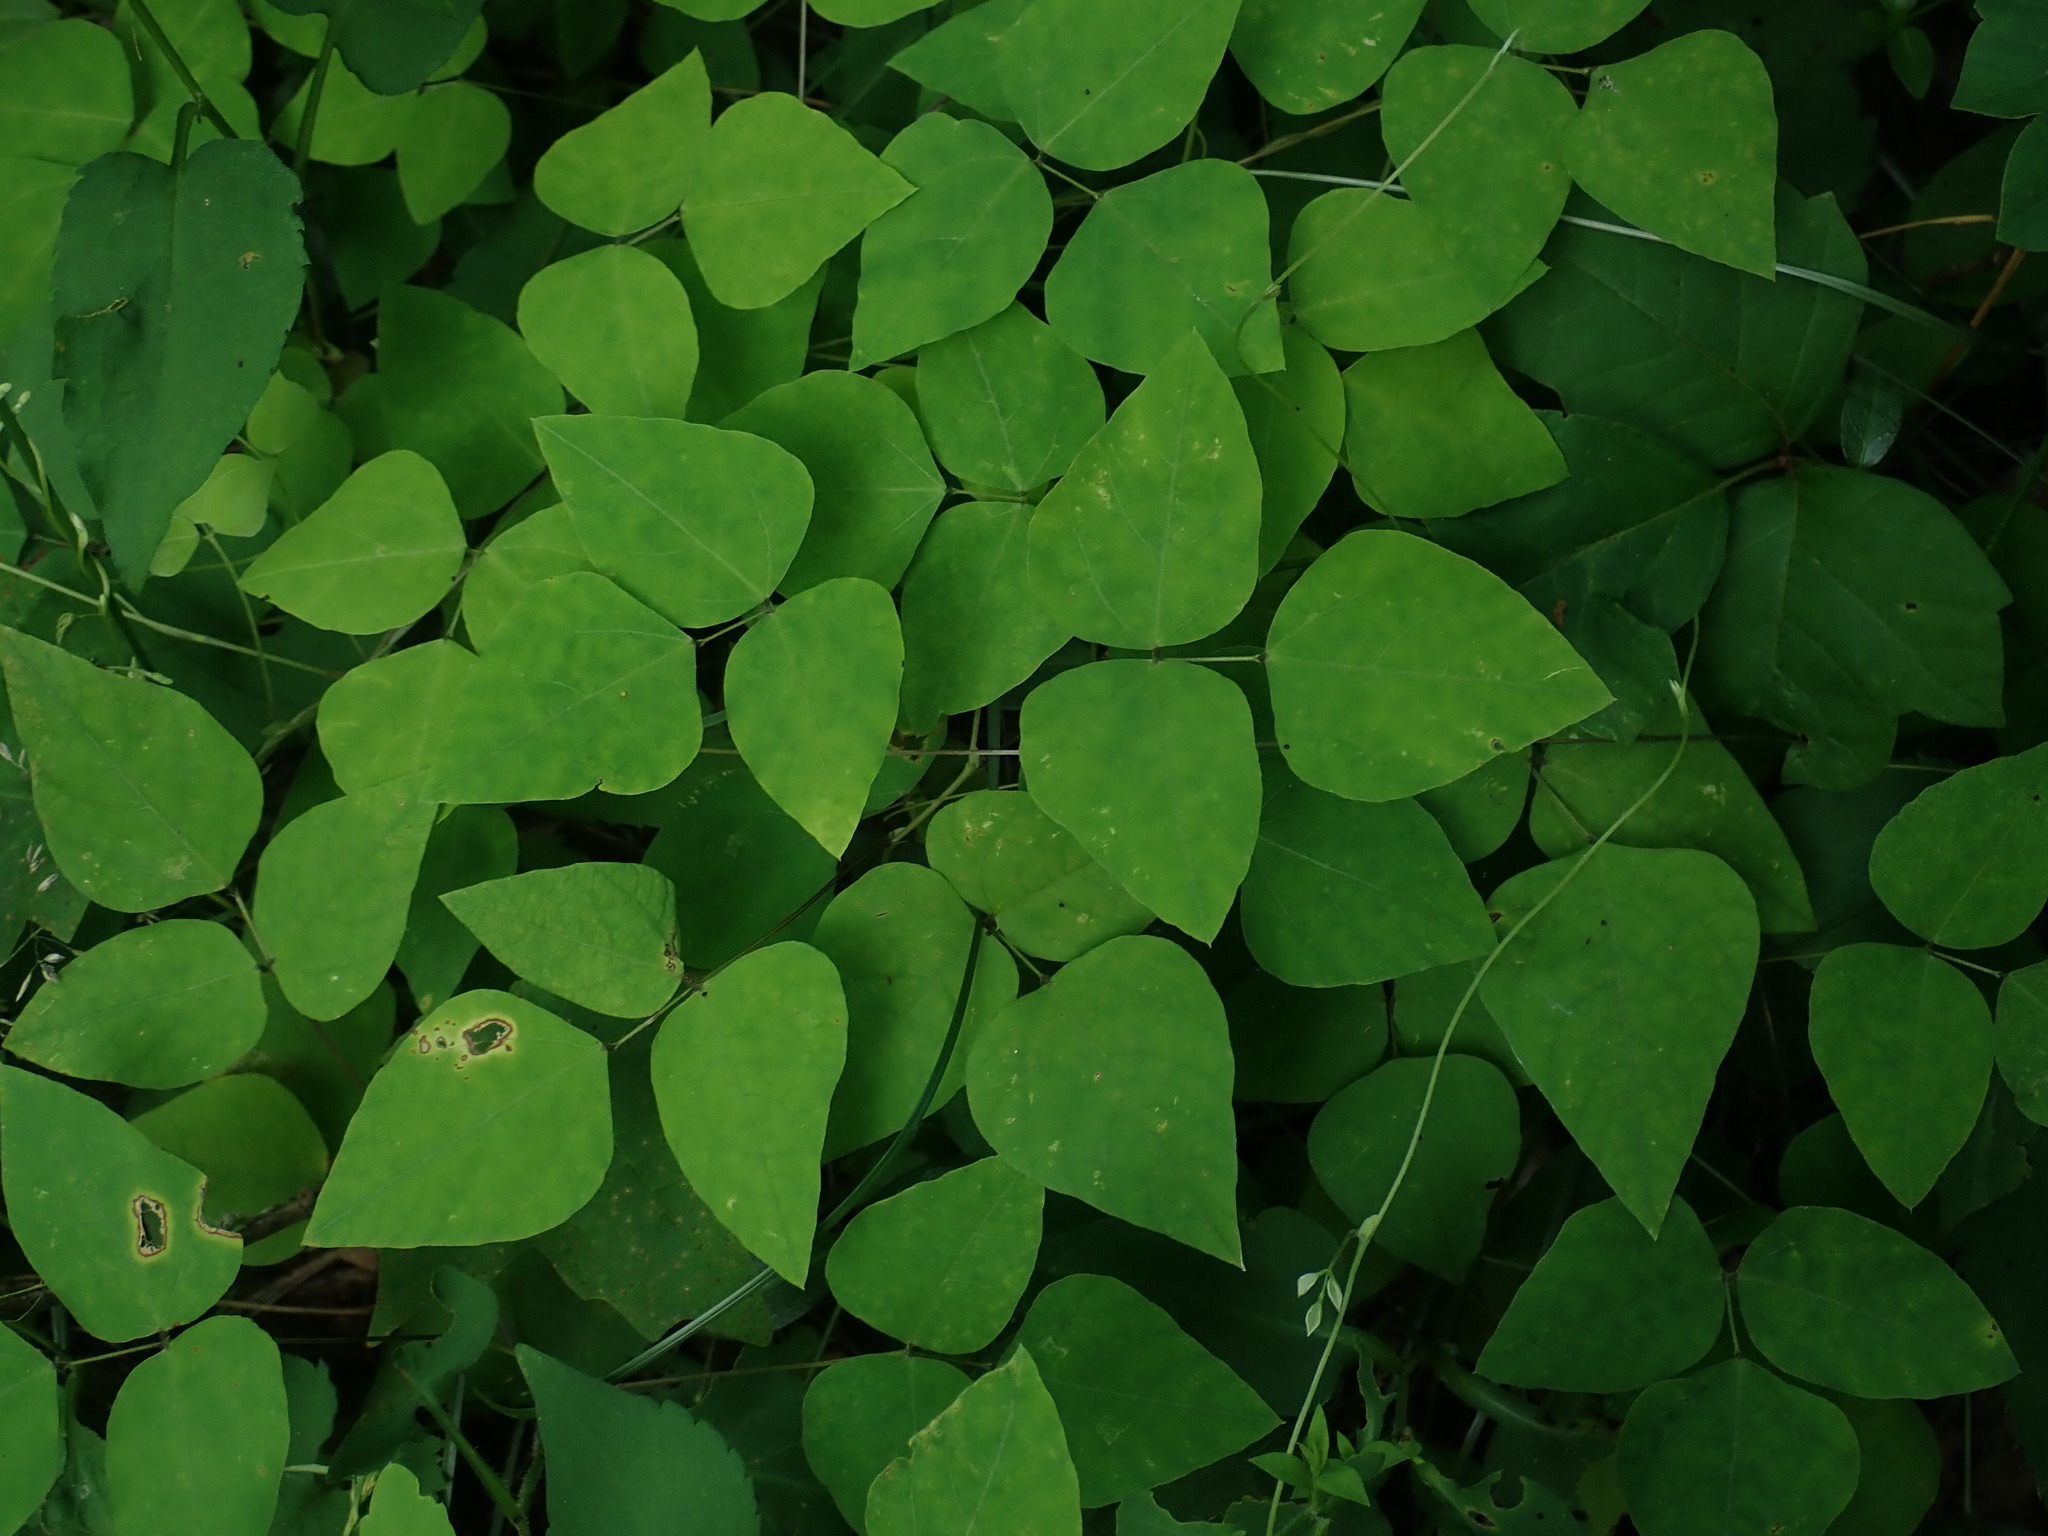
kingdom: Plantae
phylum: Tracheophyta
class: Magnoliopsida
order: Fabales
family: Fabaceae
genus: Amphicarpaea
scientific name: Amphicarpaea bracteata
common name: American hog peanut
